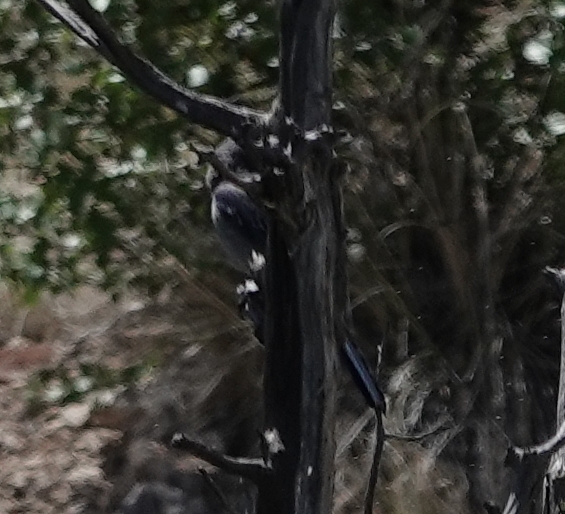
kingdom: Animalia
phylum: Chordata
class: Aves
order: Passeriformes
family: Corvidae
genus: Aphelocoma
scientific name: Aphelocoma woodhouseii
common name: Woodhouse's scrub-jay
